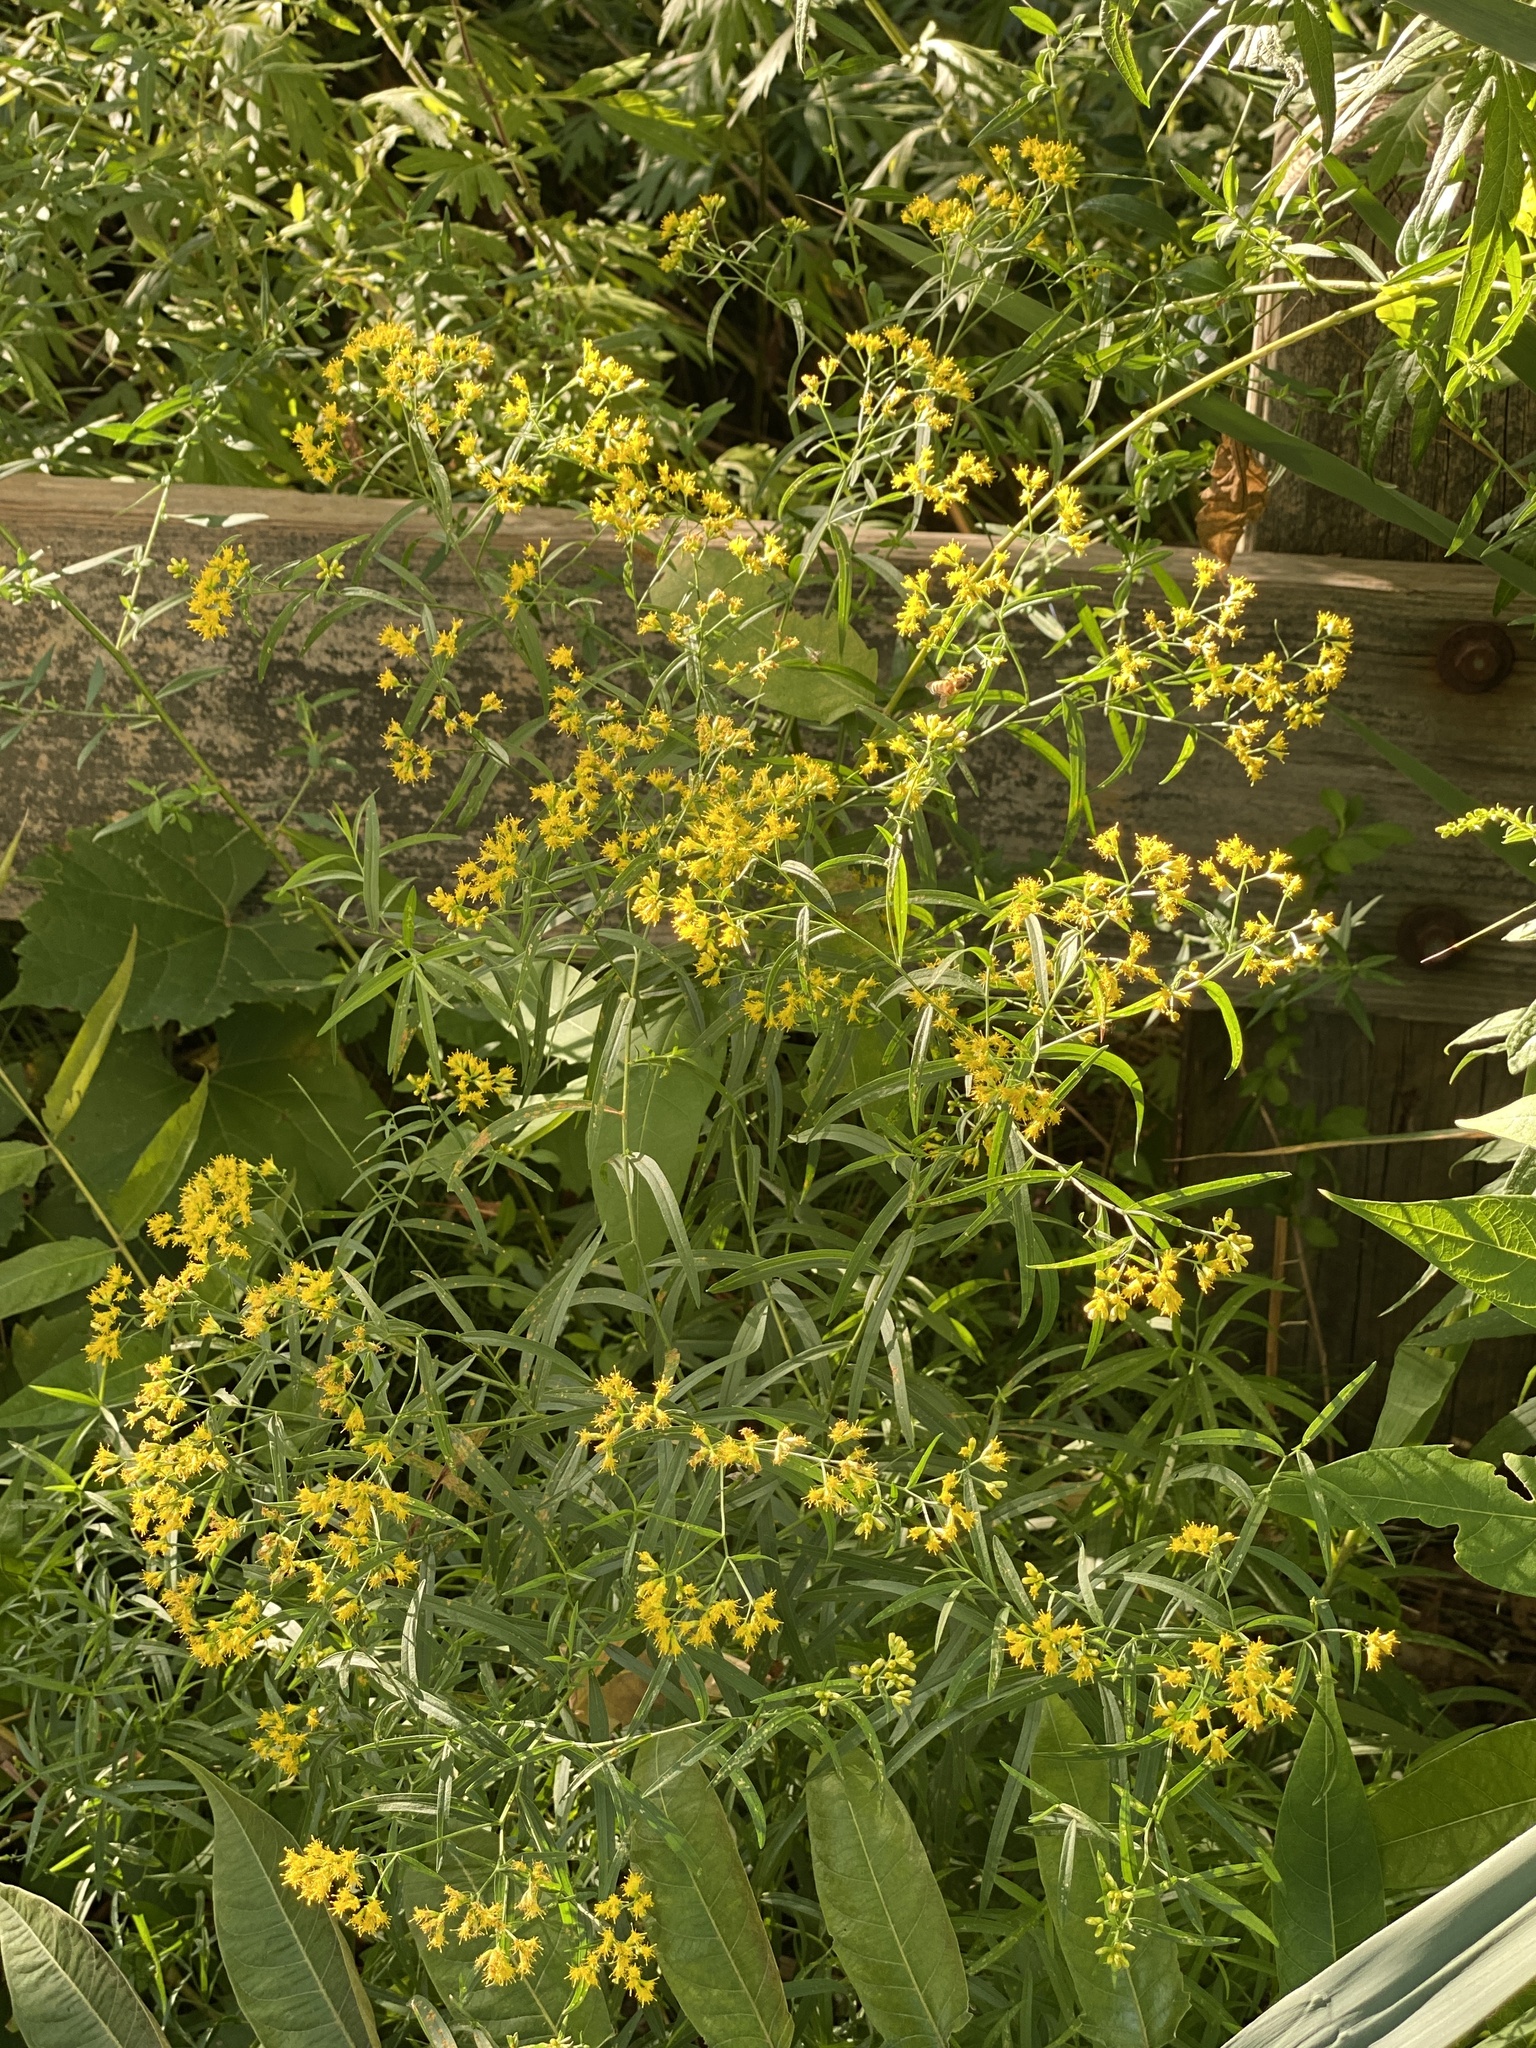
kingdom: Plantae
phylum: Tracheophyta
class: Magnoliopsida
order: Asterales
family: Asteraceae
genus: Euthamia
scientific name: Euthamia graminifolia
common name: Common goldentop
